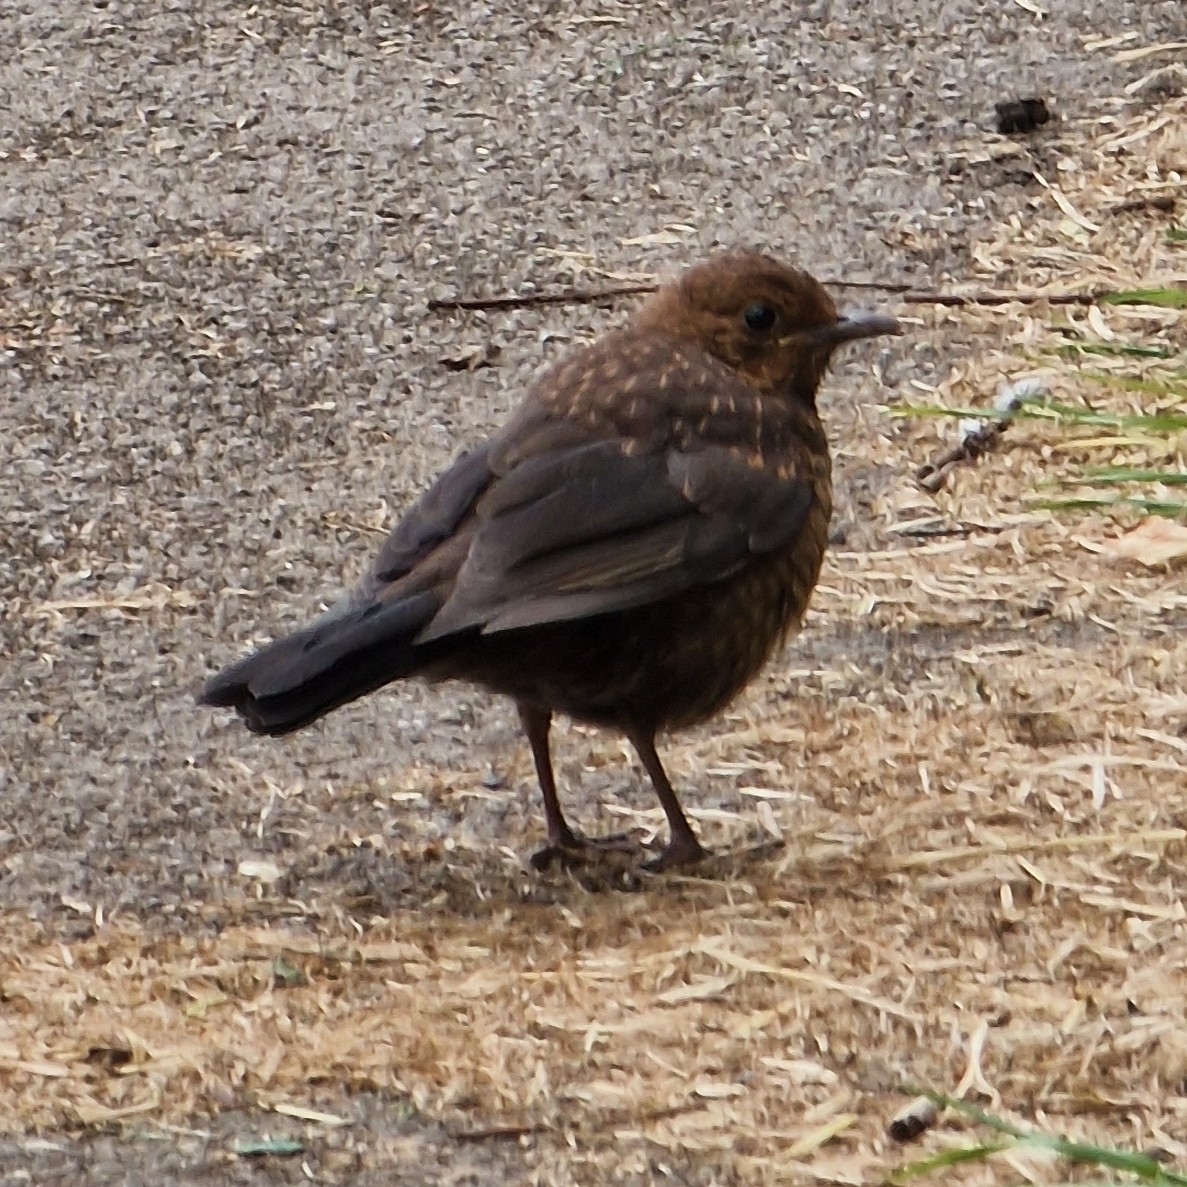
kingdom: Animalia
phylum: Chordata
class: Aves
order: Passeriformes
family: Turdidae
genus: Turdus
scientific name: Turdus merula
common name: Common blackbird
